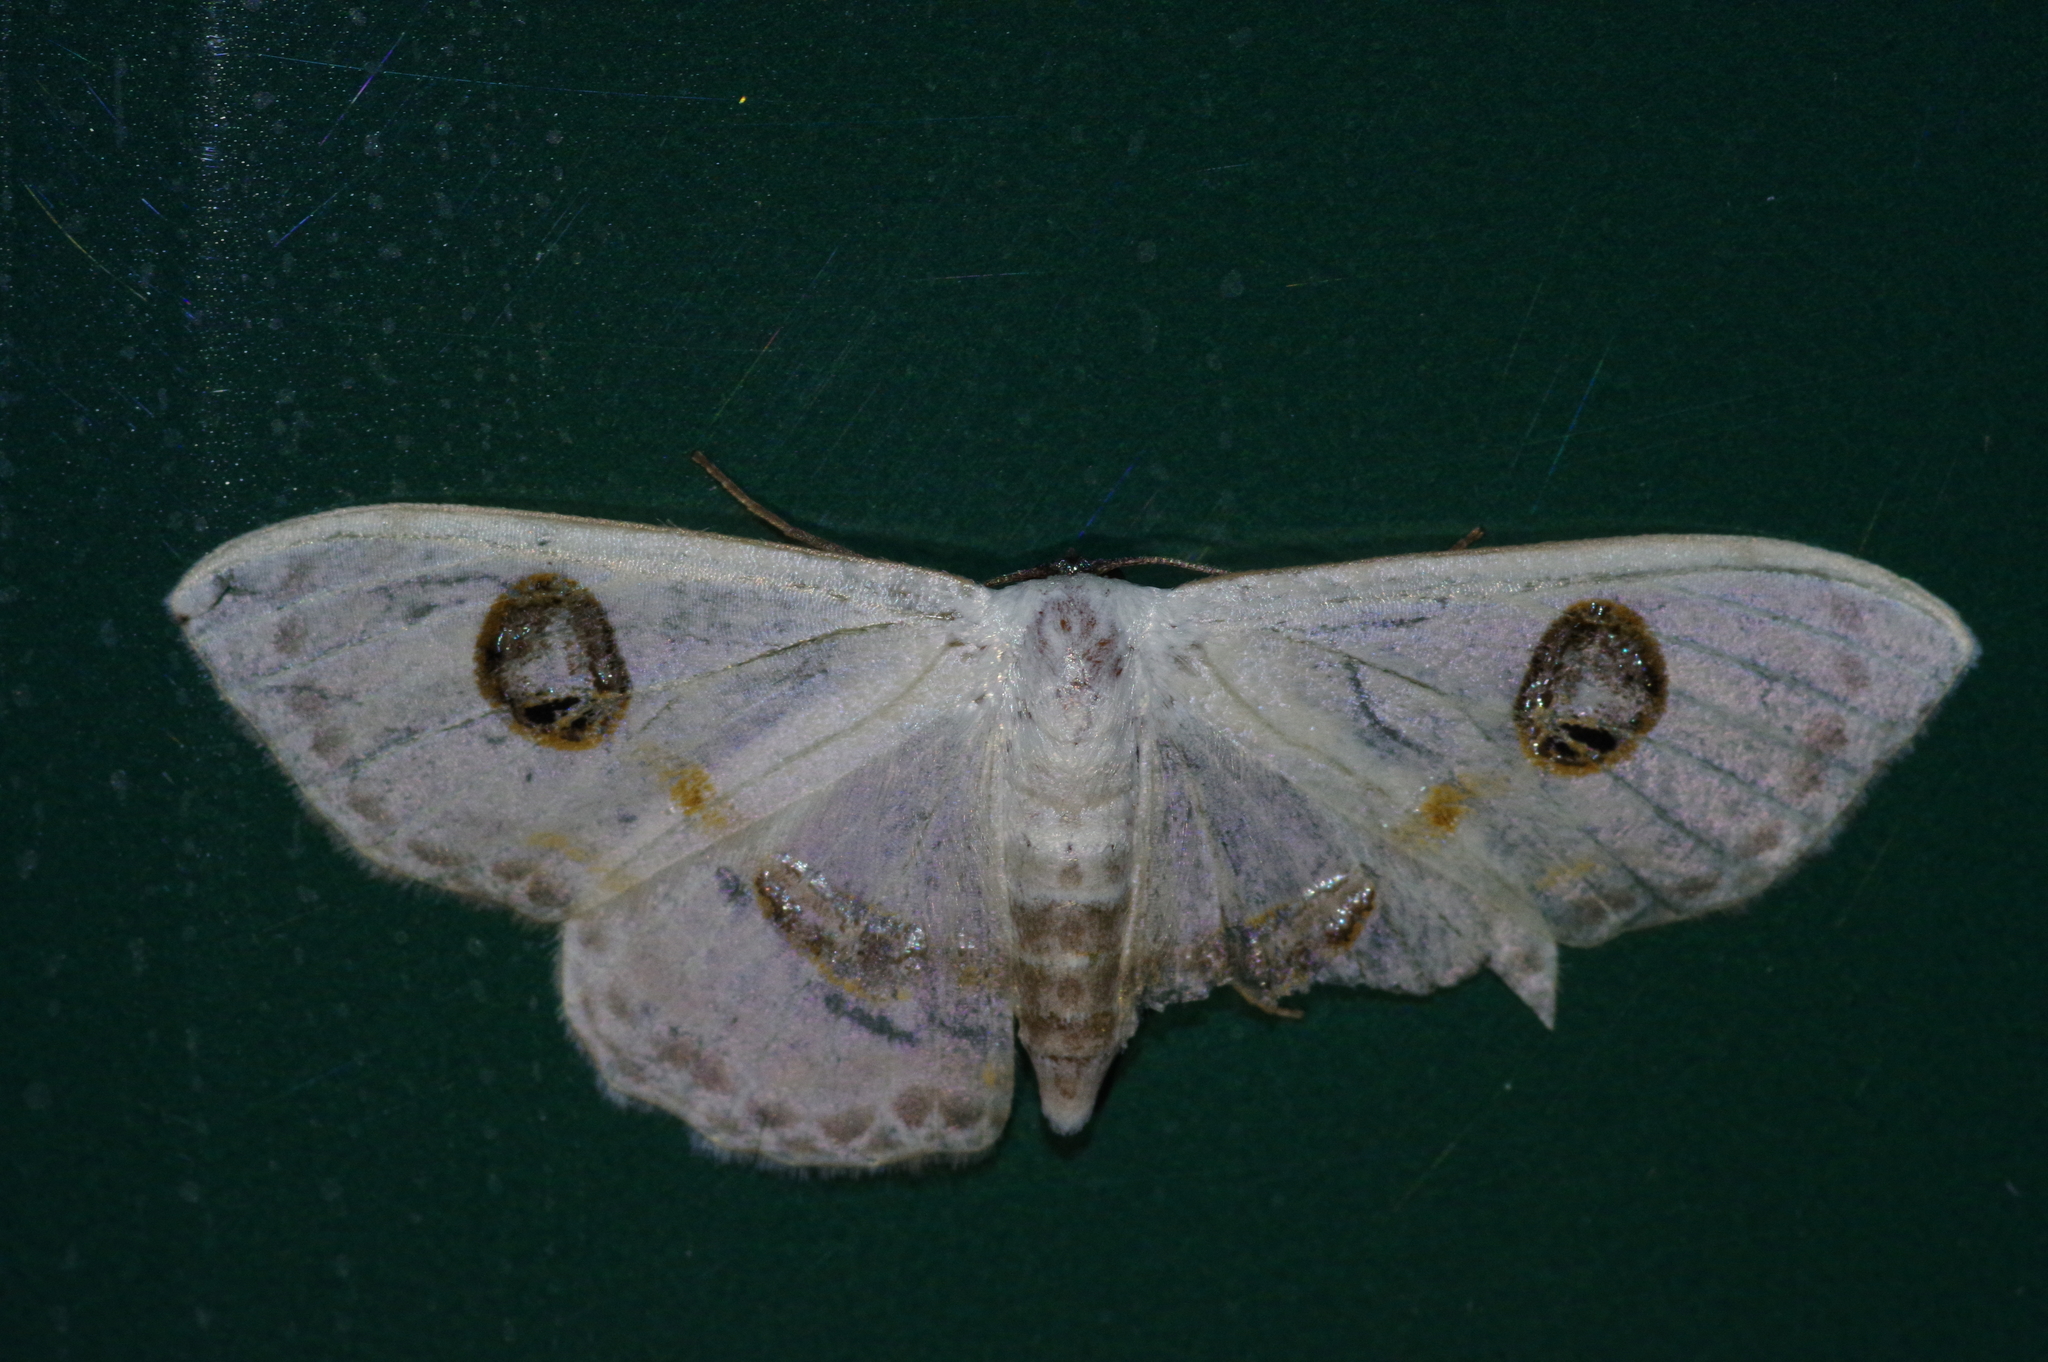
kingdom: Animalia
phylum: Arthropoda
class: Insecta
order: Lepidoptera
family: Geometridae
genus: Problepsis
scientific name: Problepsis albidior
